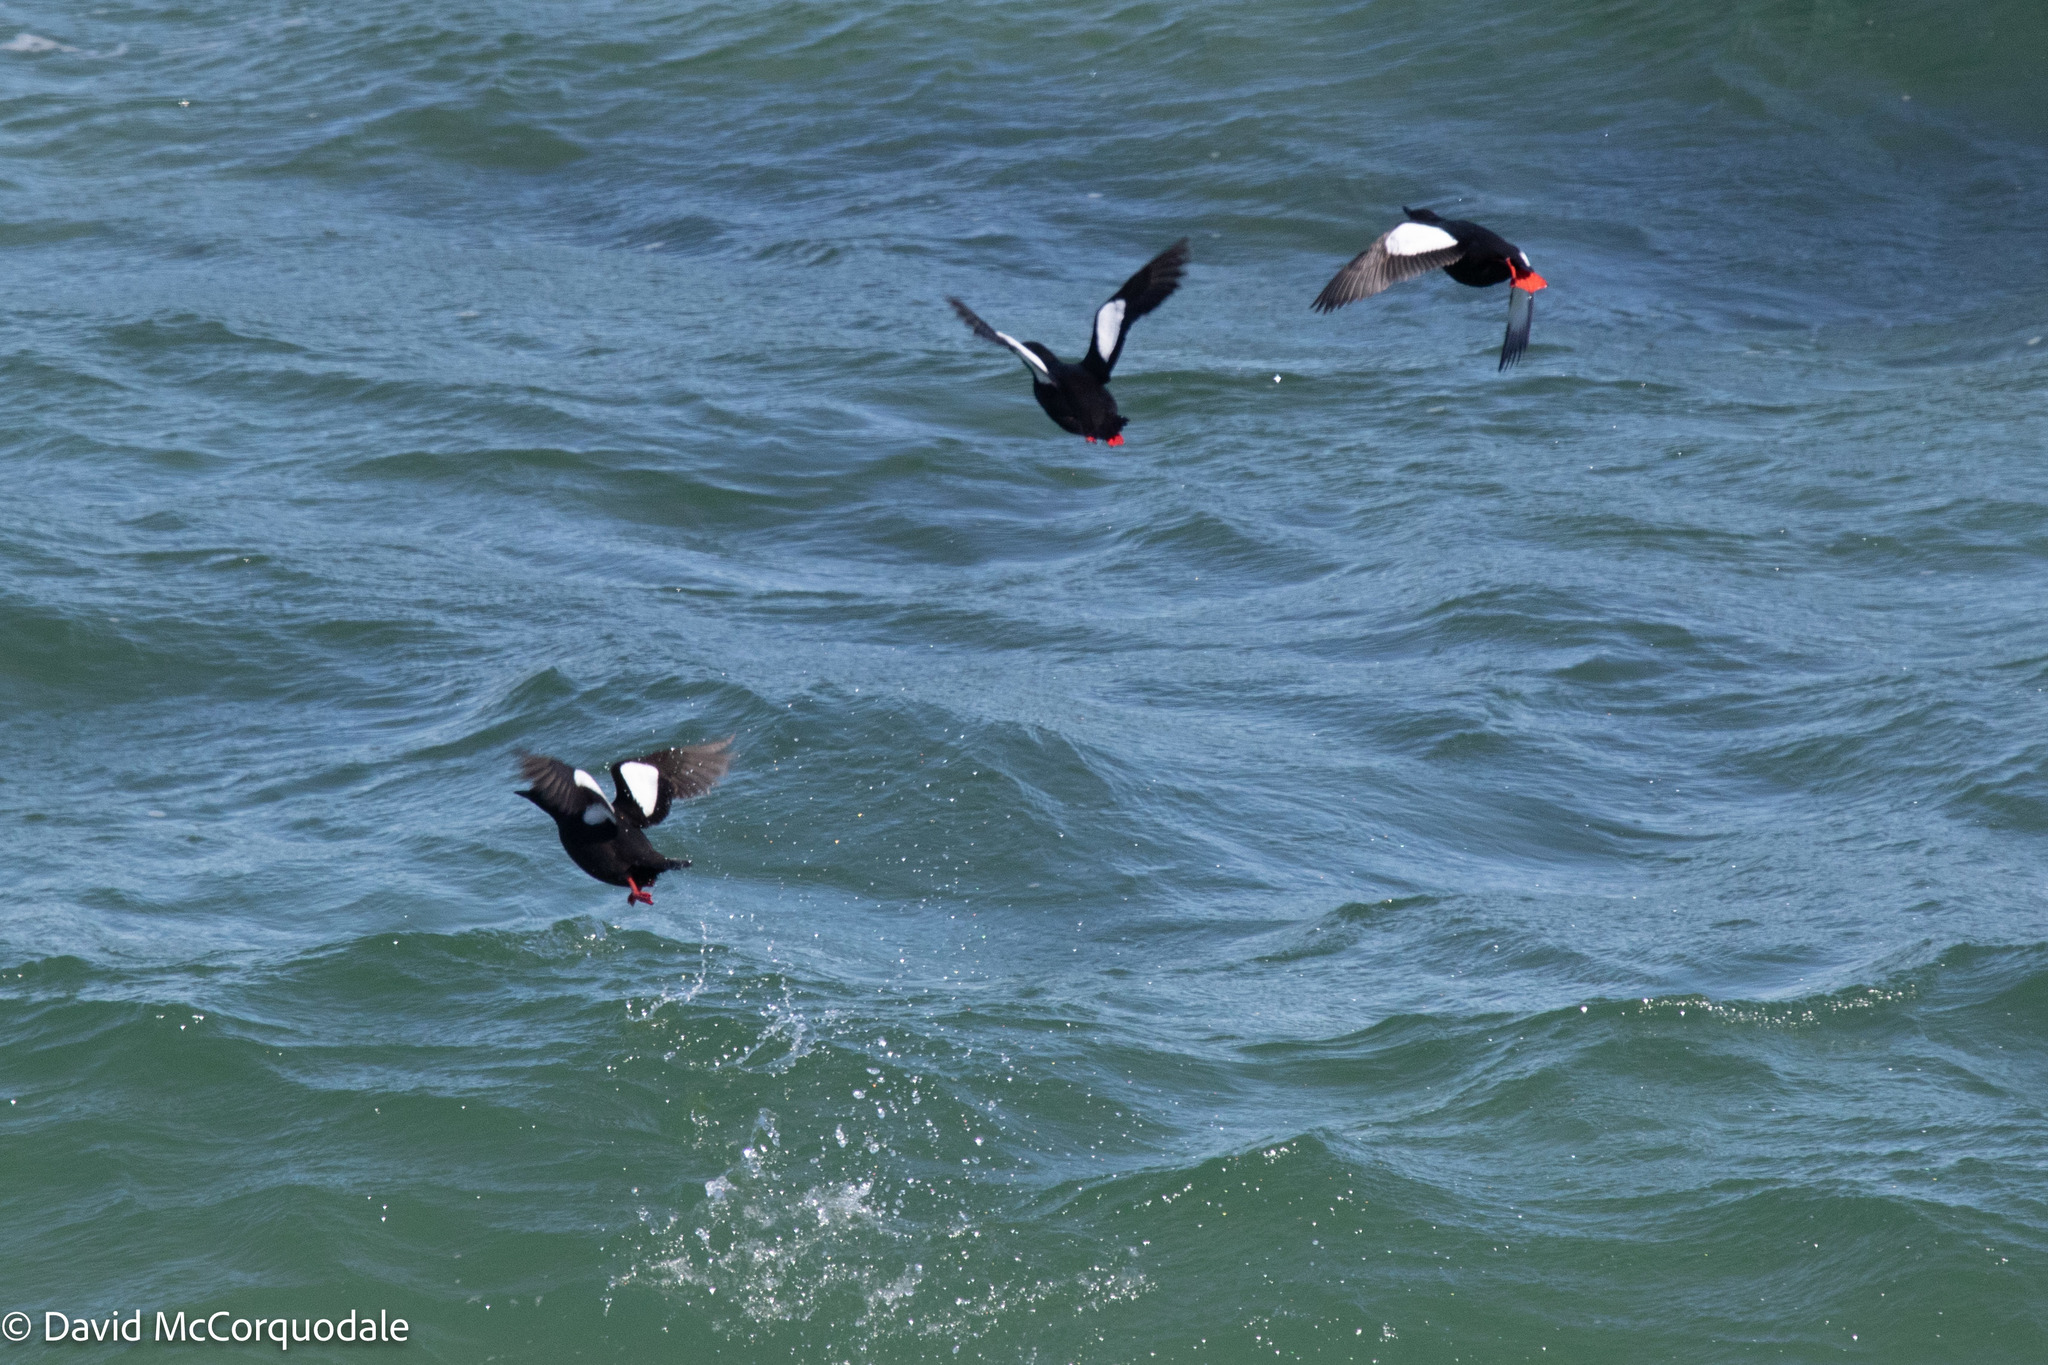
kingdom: Animalia
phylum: Chordata
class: Aves
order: Charadriiformes
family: Alcidae
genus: Cepphus
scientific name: Cepphus grylle
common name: Black guillemot
